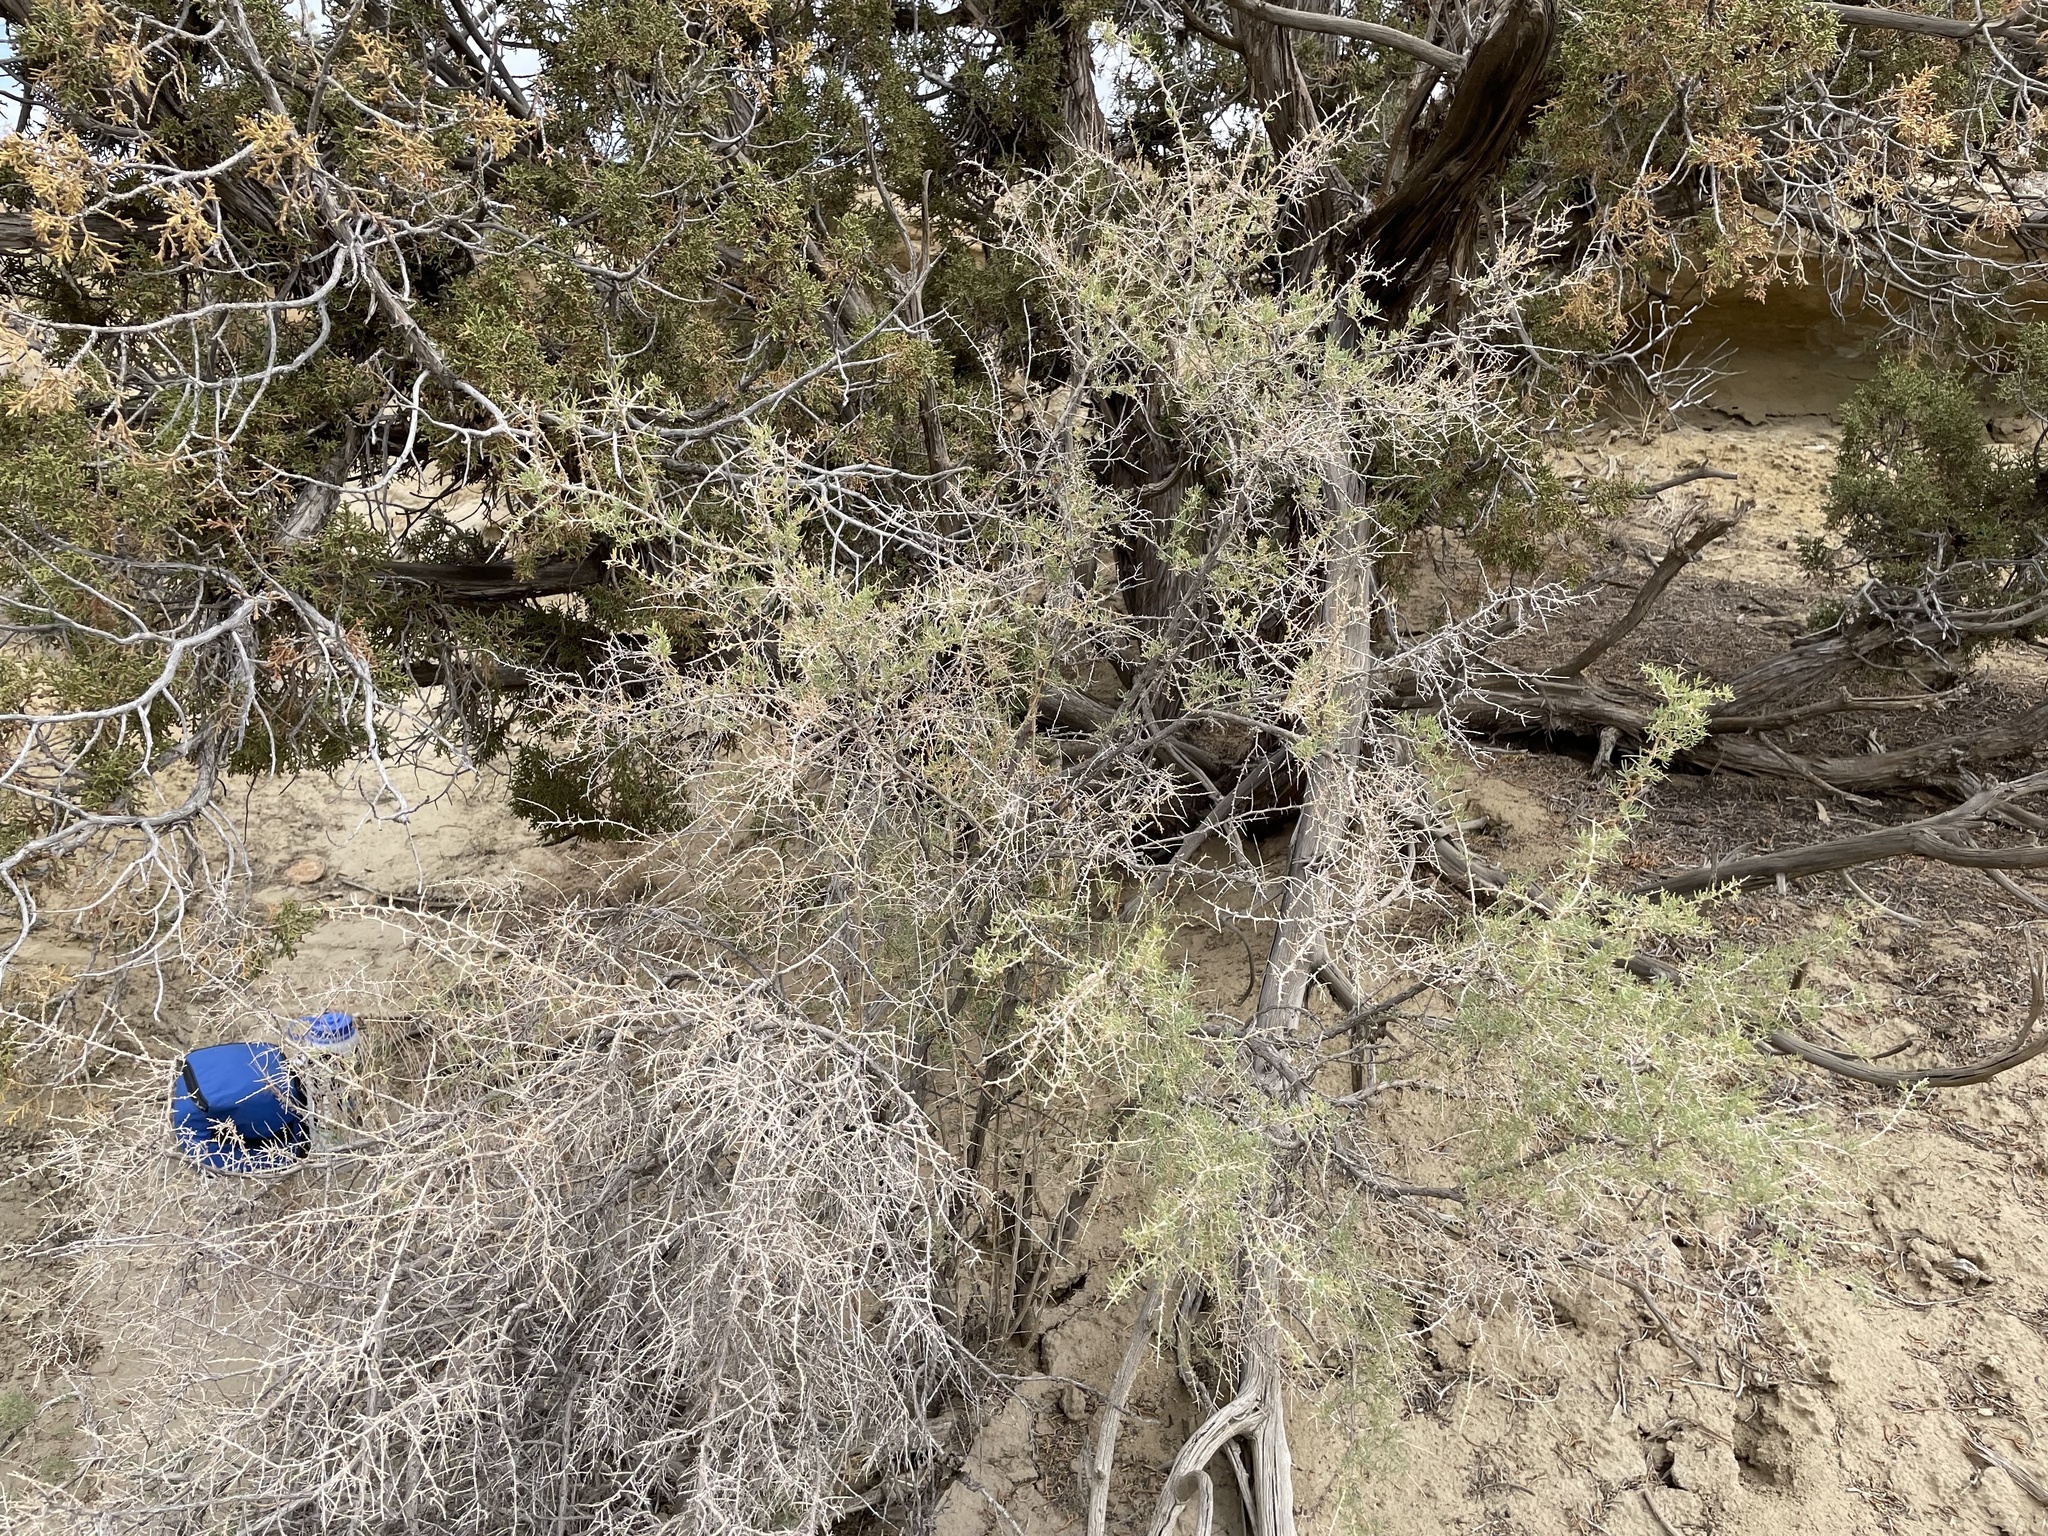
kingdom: Plantae
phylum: Tracheophyta
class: Magnoliopsida
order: Caryophyllales
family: Sarcobataceae
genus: Sarcobatus
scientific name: Sarcobatus vermiculatus
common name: Greasewood
